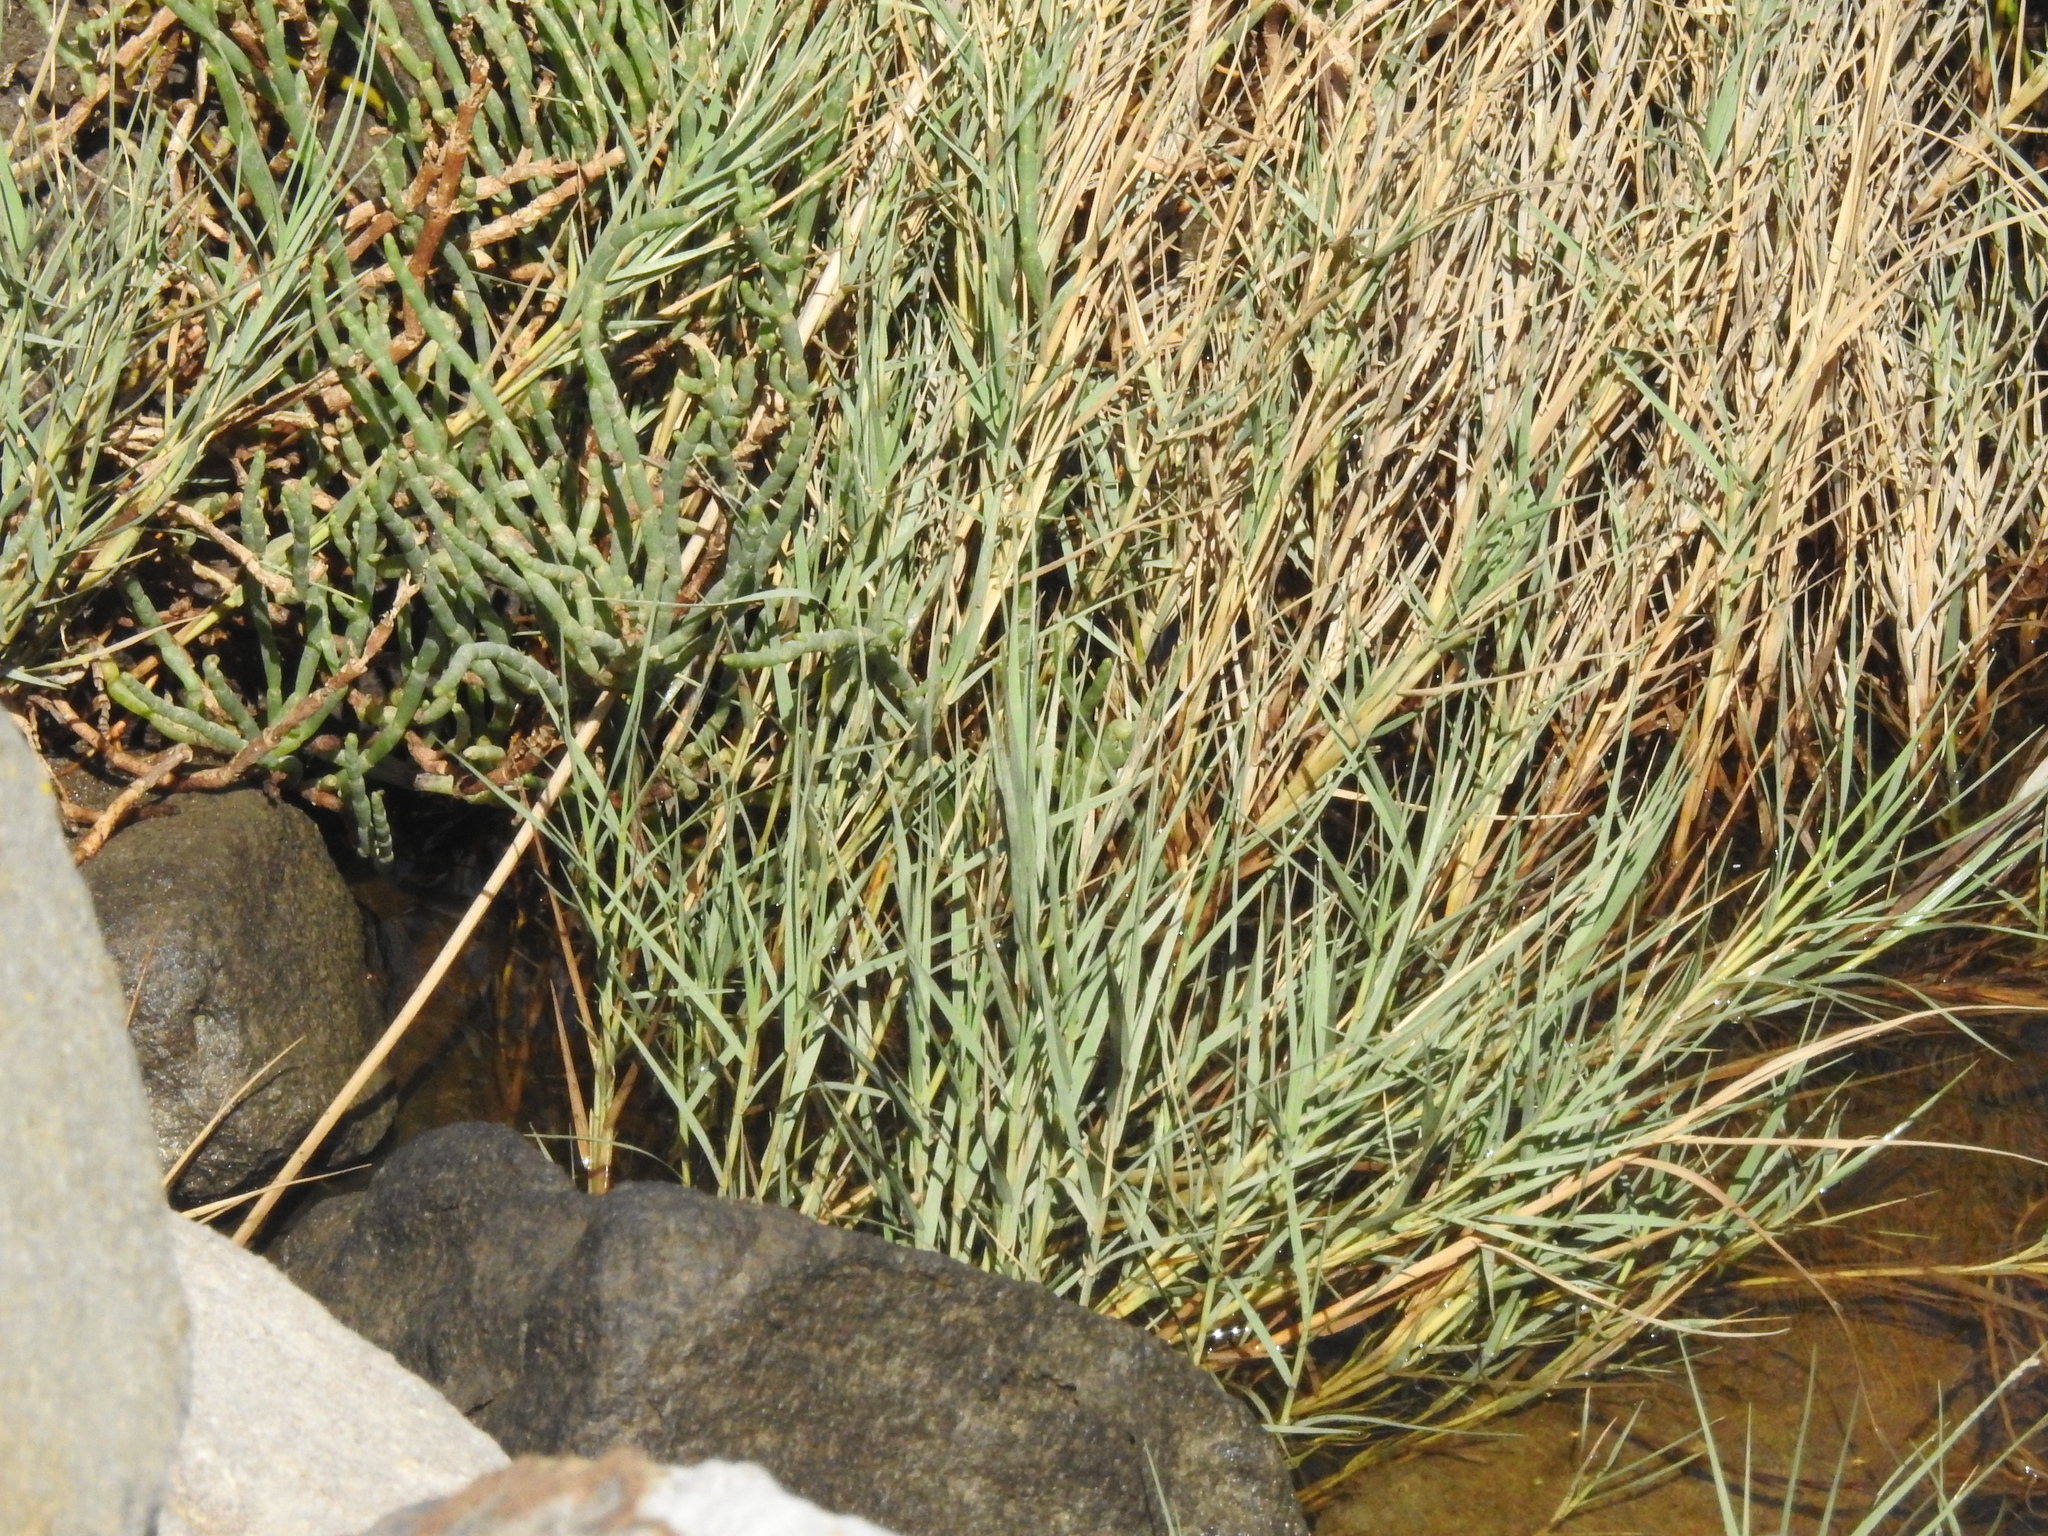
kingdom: Plantae
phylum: Tracheophyta
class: Liliopsida
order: Poales
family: Poaceae
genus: Distichlis
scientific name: Distichlis spicata
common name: Saltgrass
